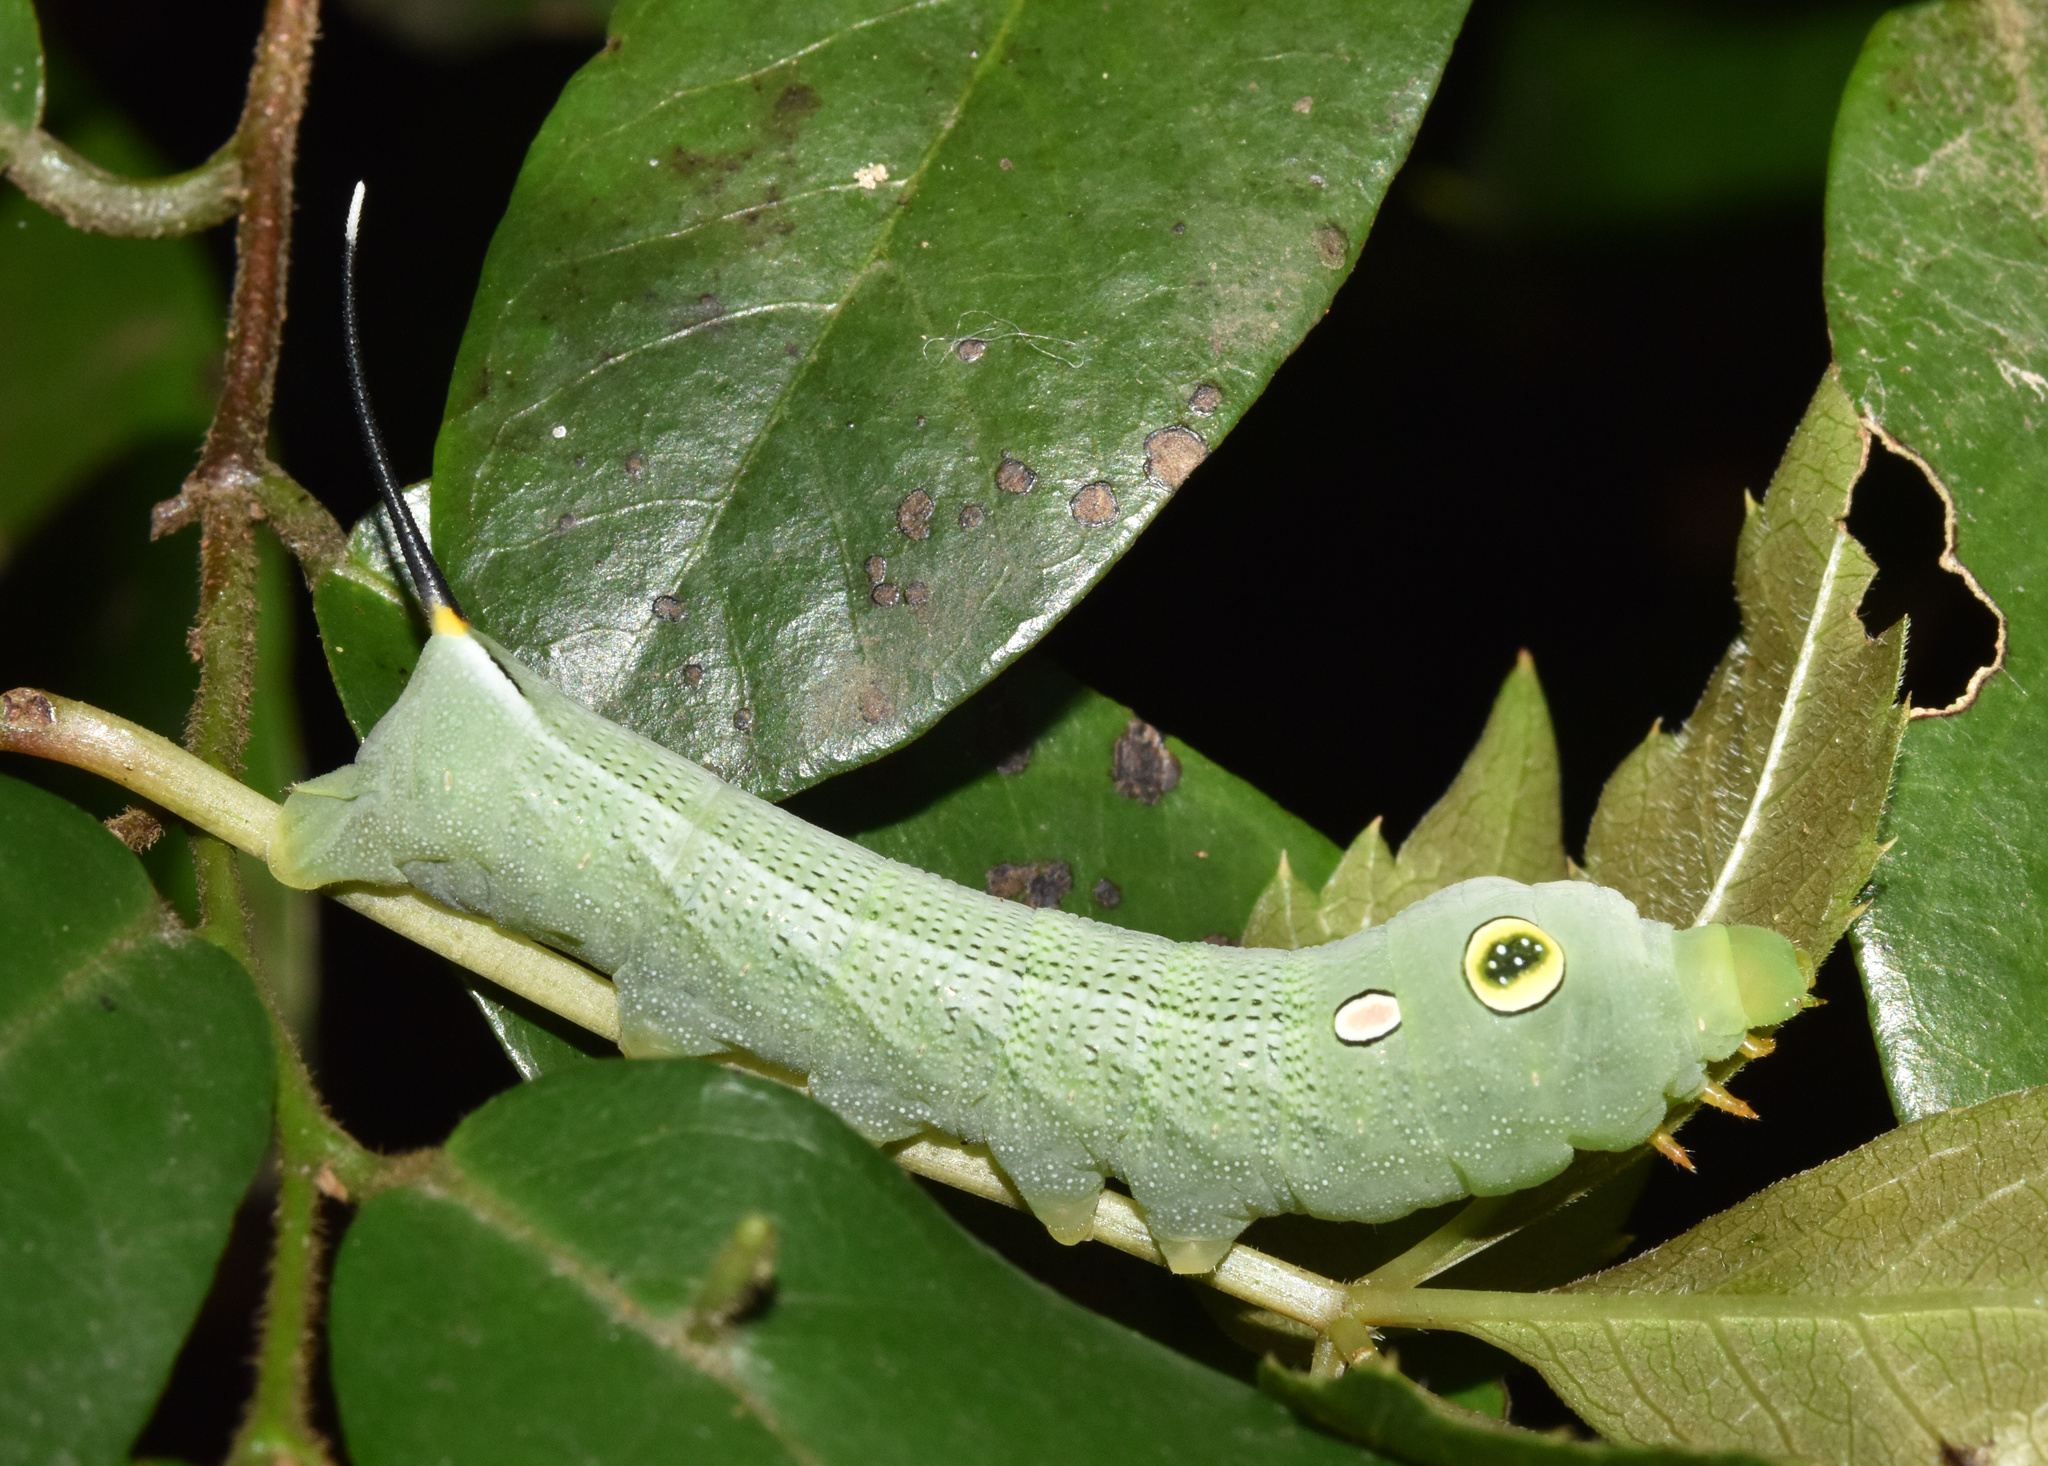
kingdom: Animalia
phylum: Arthropoda
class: Insecta
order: Lepidoptera
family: Sphingidae
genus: Hippotion
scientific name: Hippotion eson
